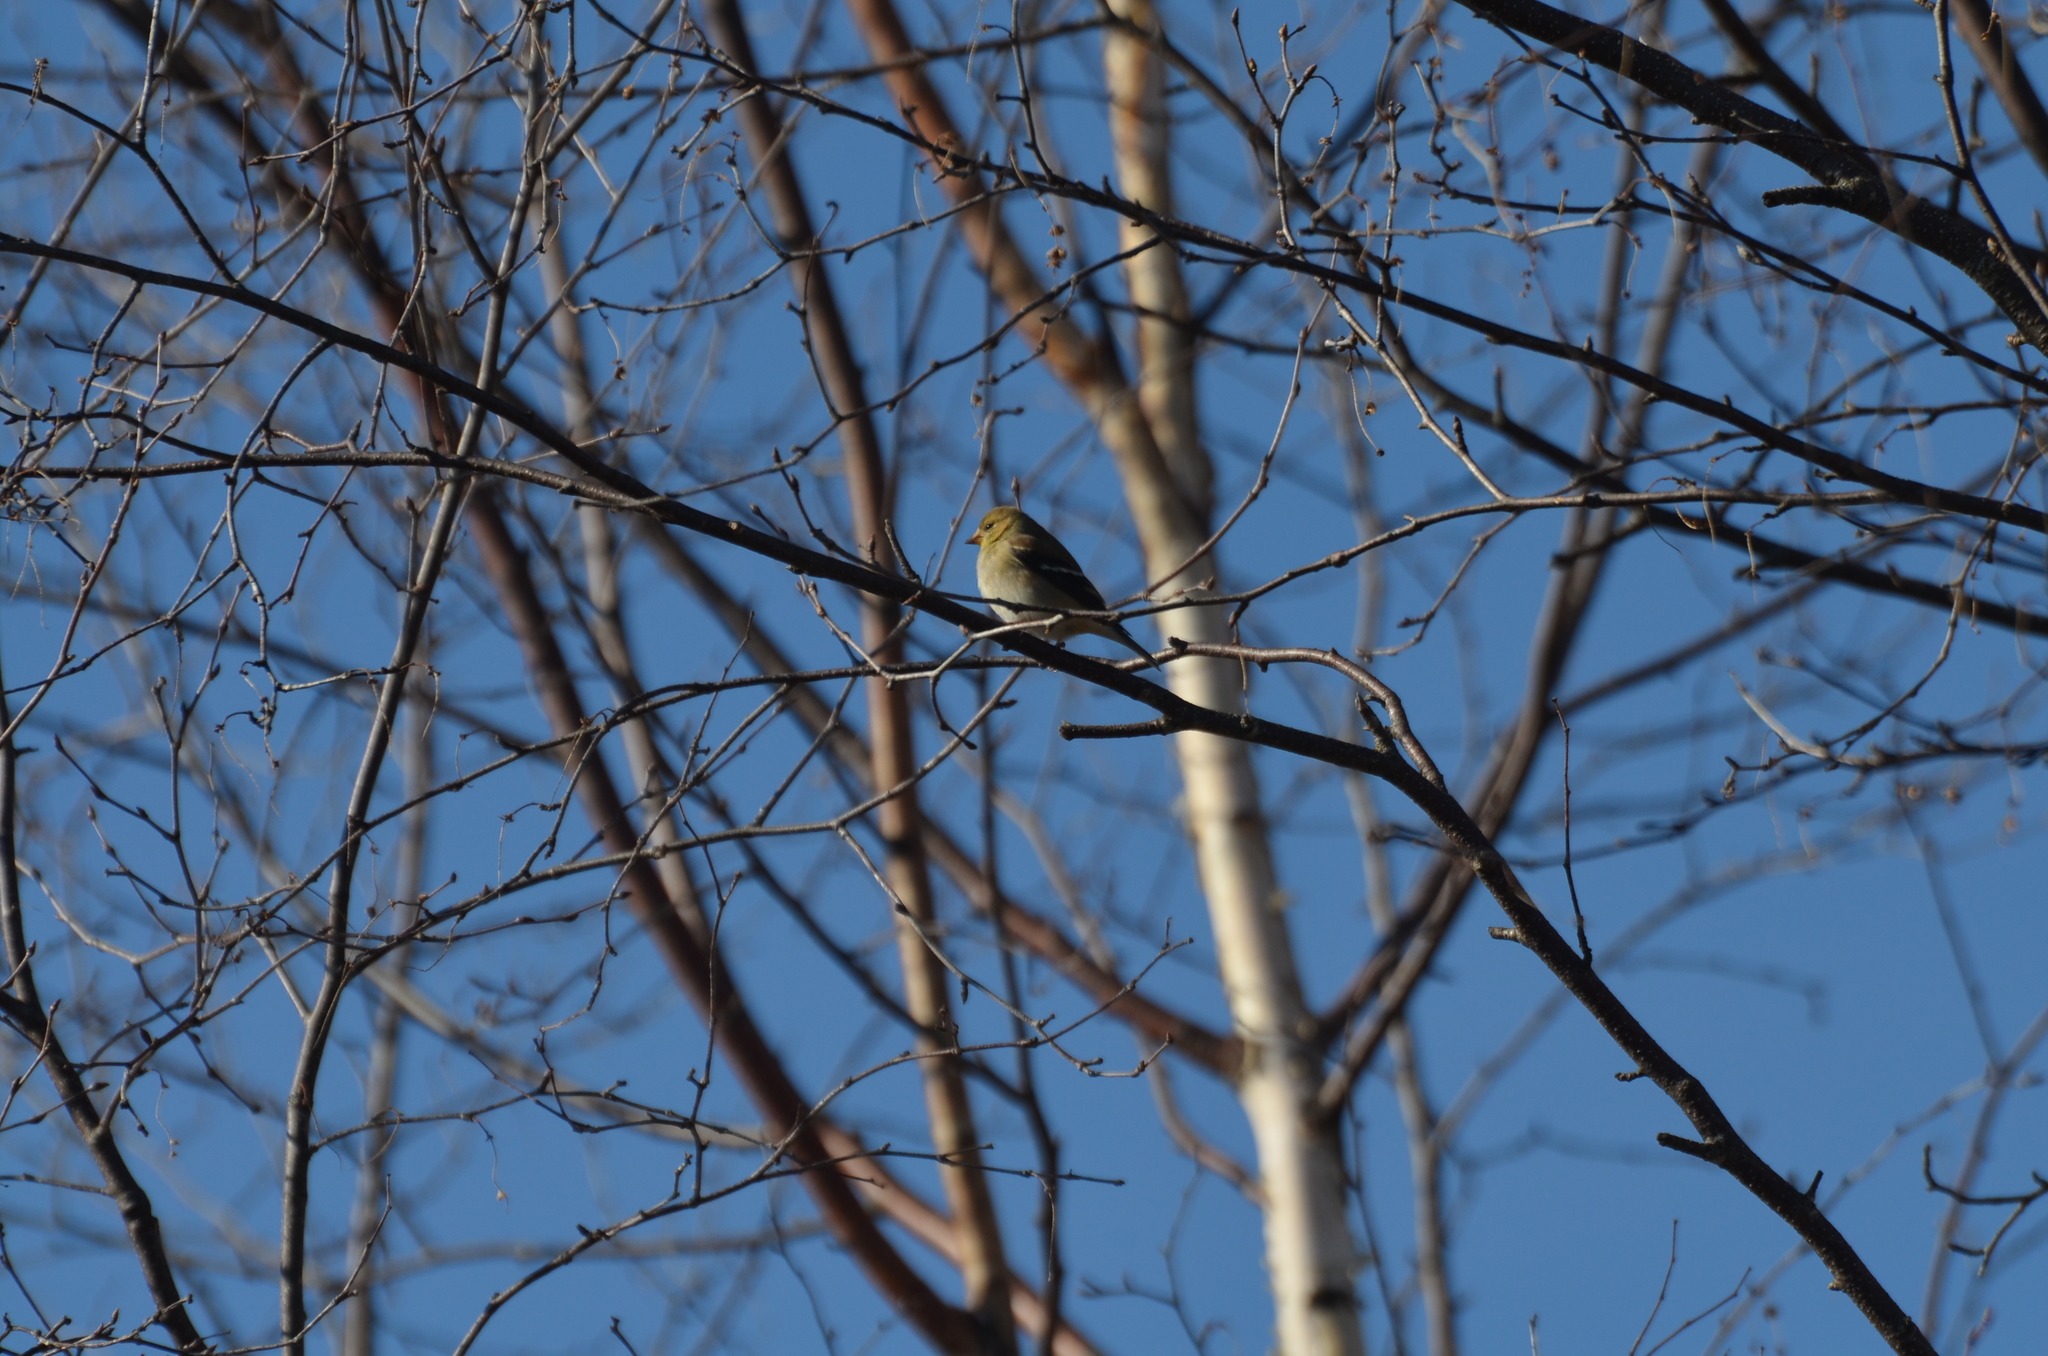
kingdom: Animalia
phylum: Chordata
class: Aves
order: Passeriformes
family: Fringillidae
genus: Spinus
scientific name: Spinus tristis
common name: American goldfinch
